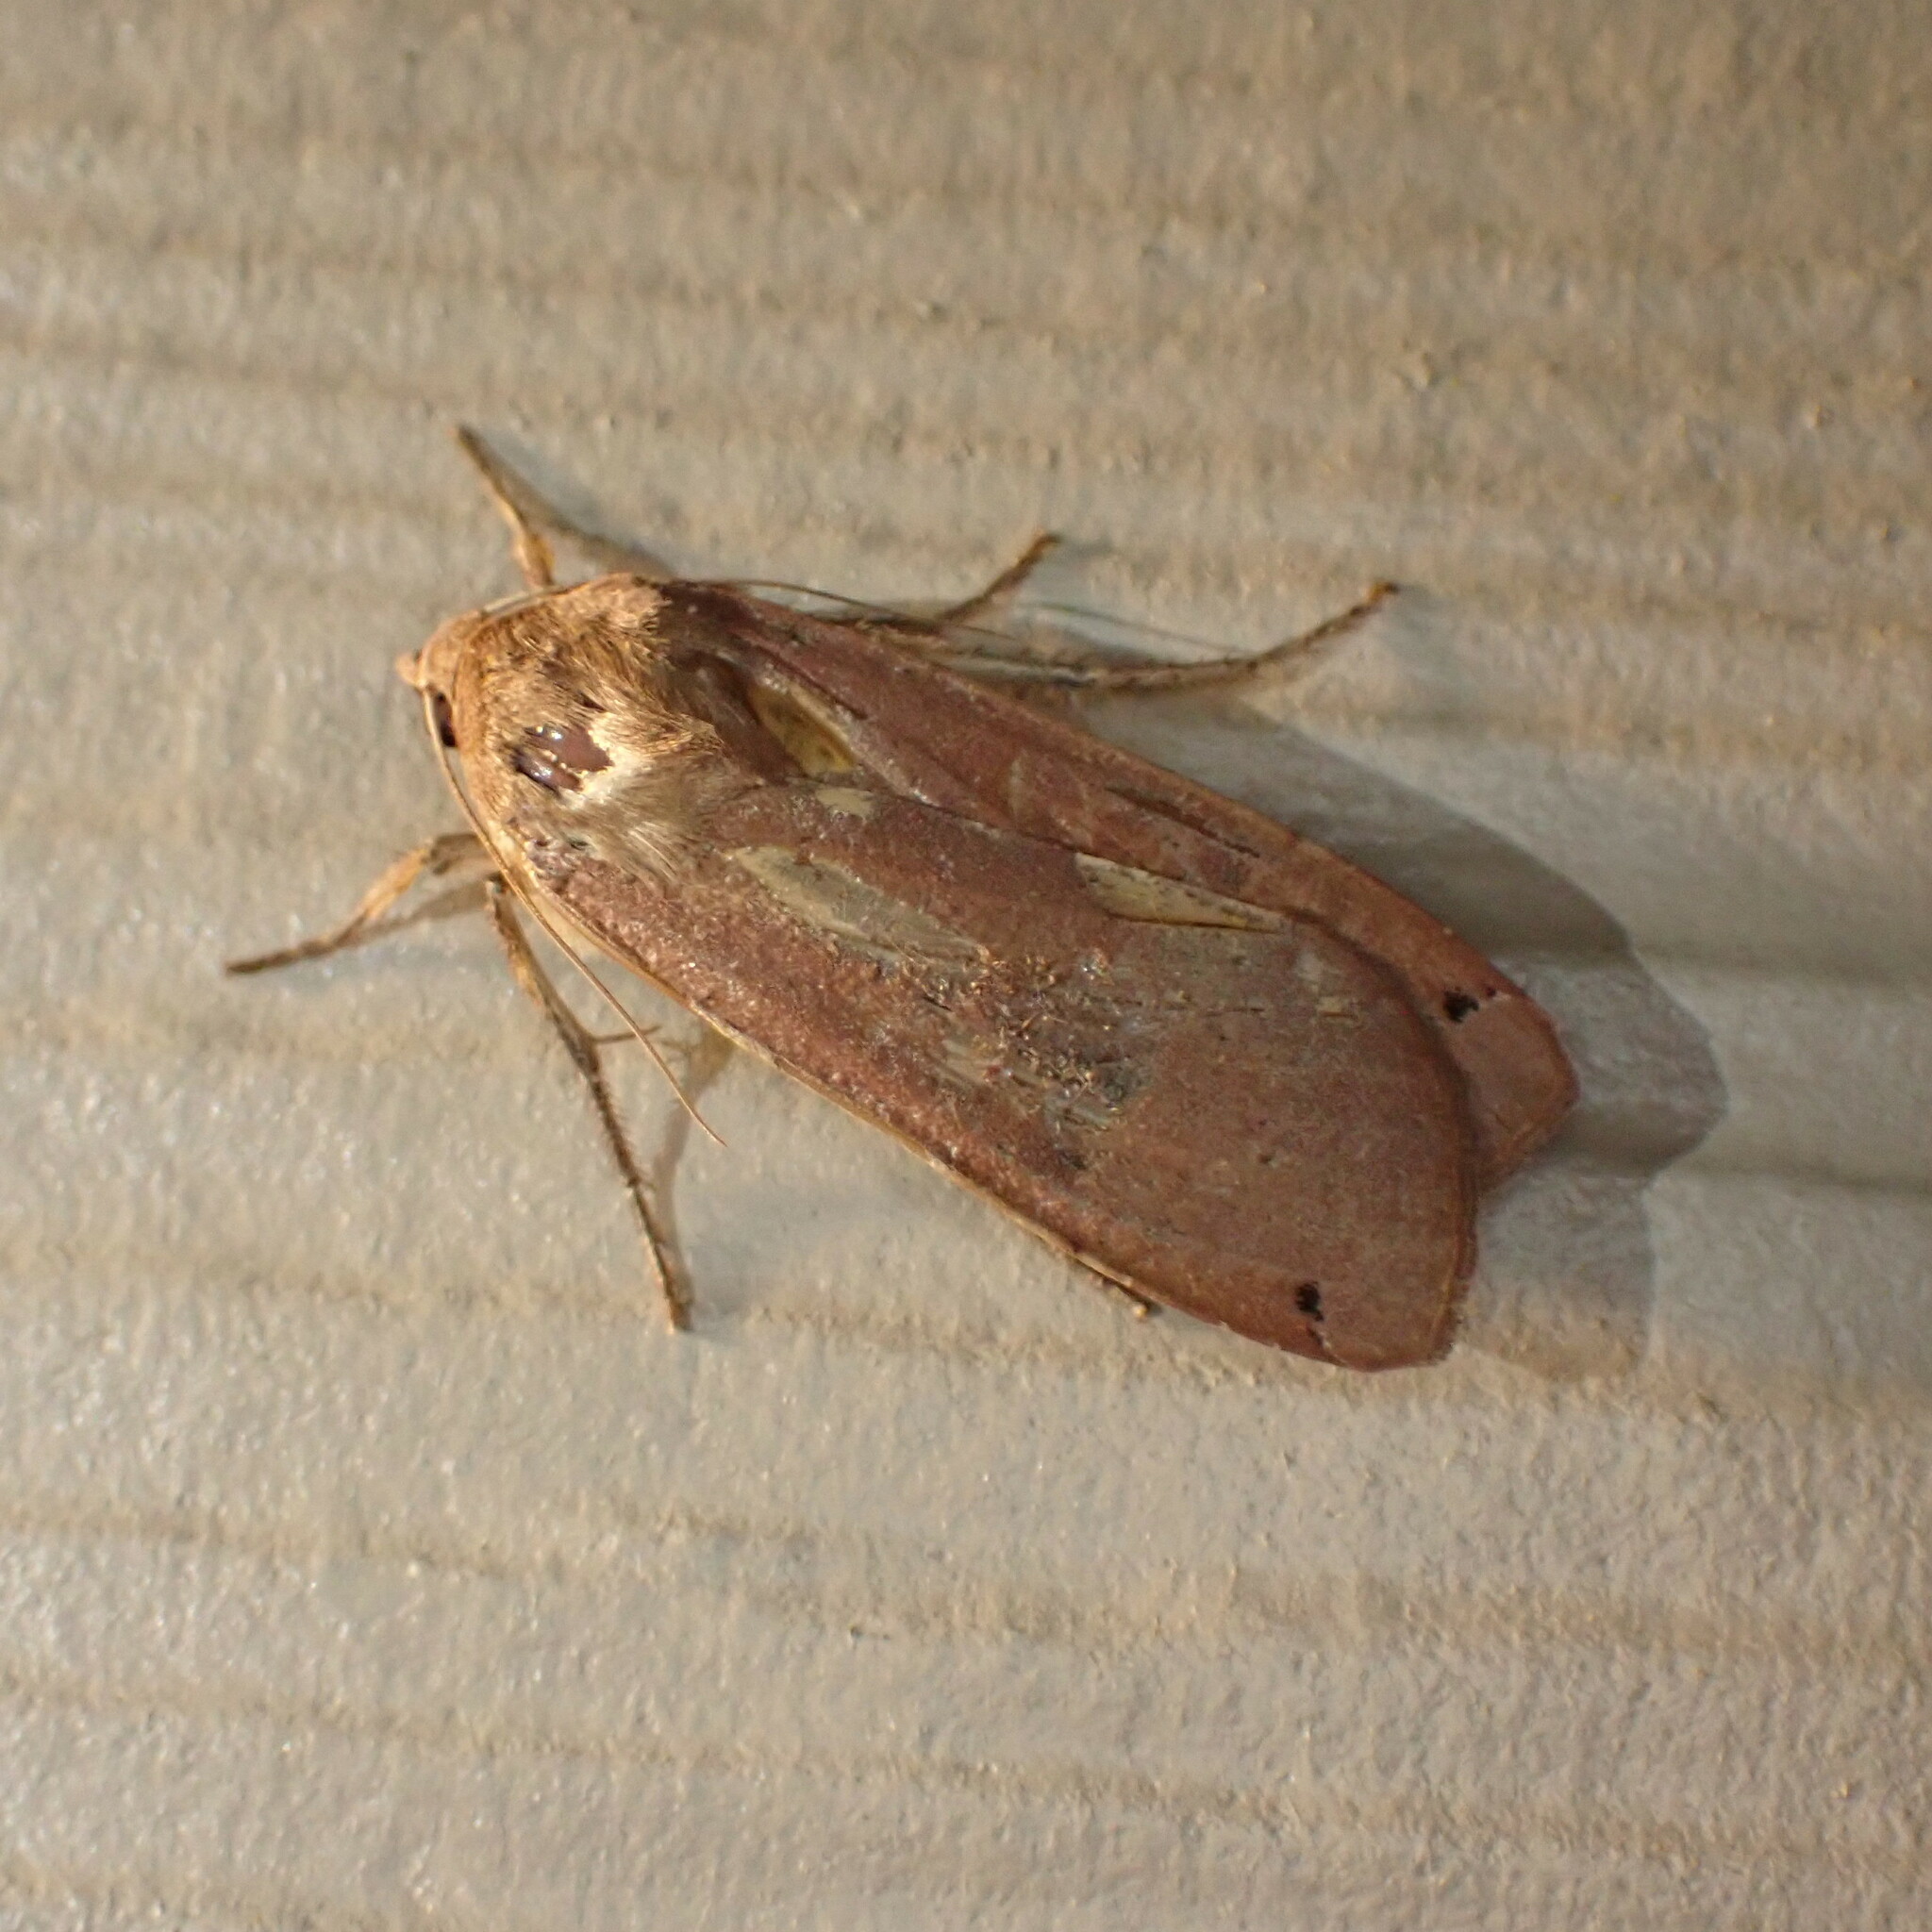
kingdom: Animalia
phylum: Arthropoda
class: Insecta
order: Lepidoptera
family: Noctuidae
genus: Noctua
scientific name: Noctua pronuba
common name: Large yellow underwing
